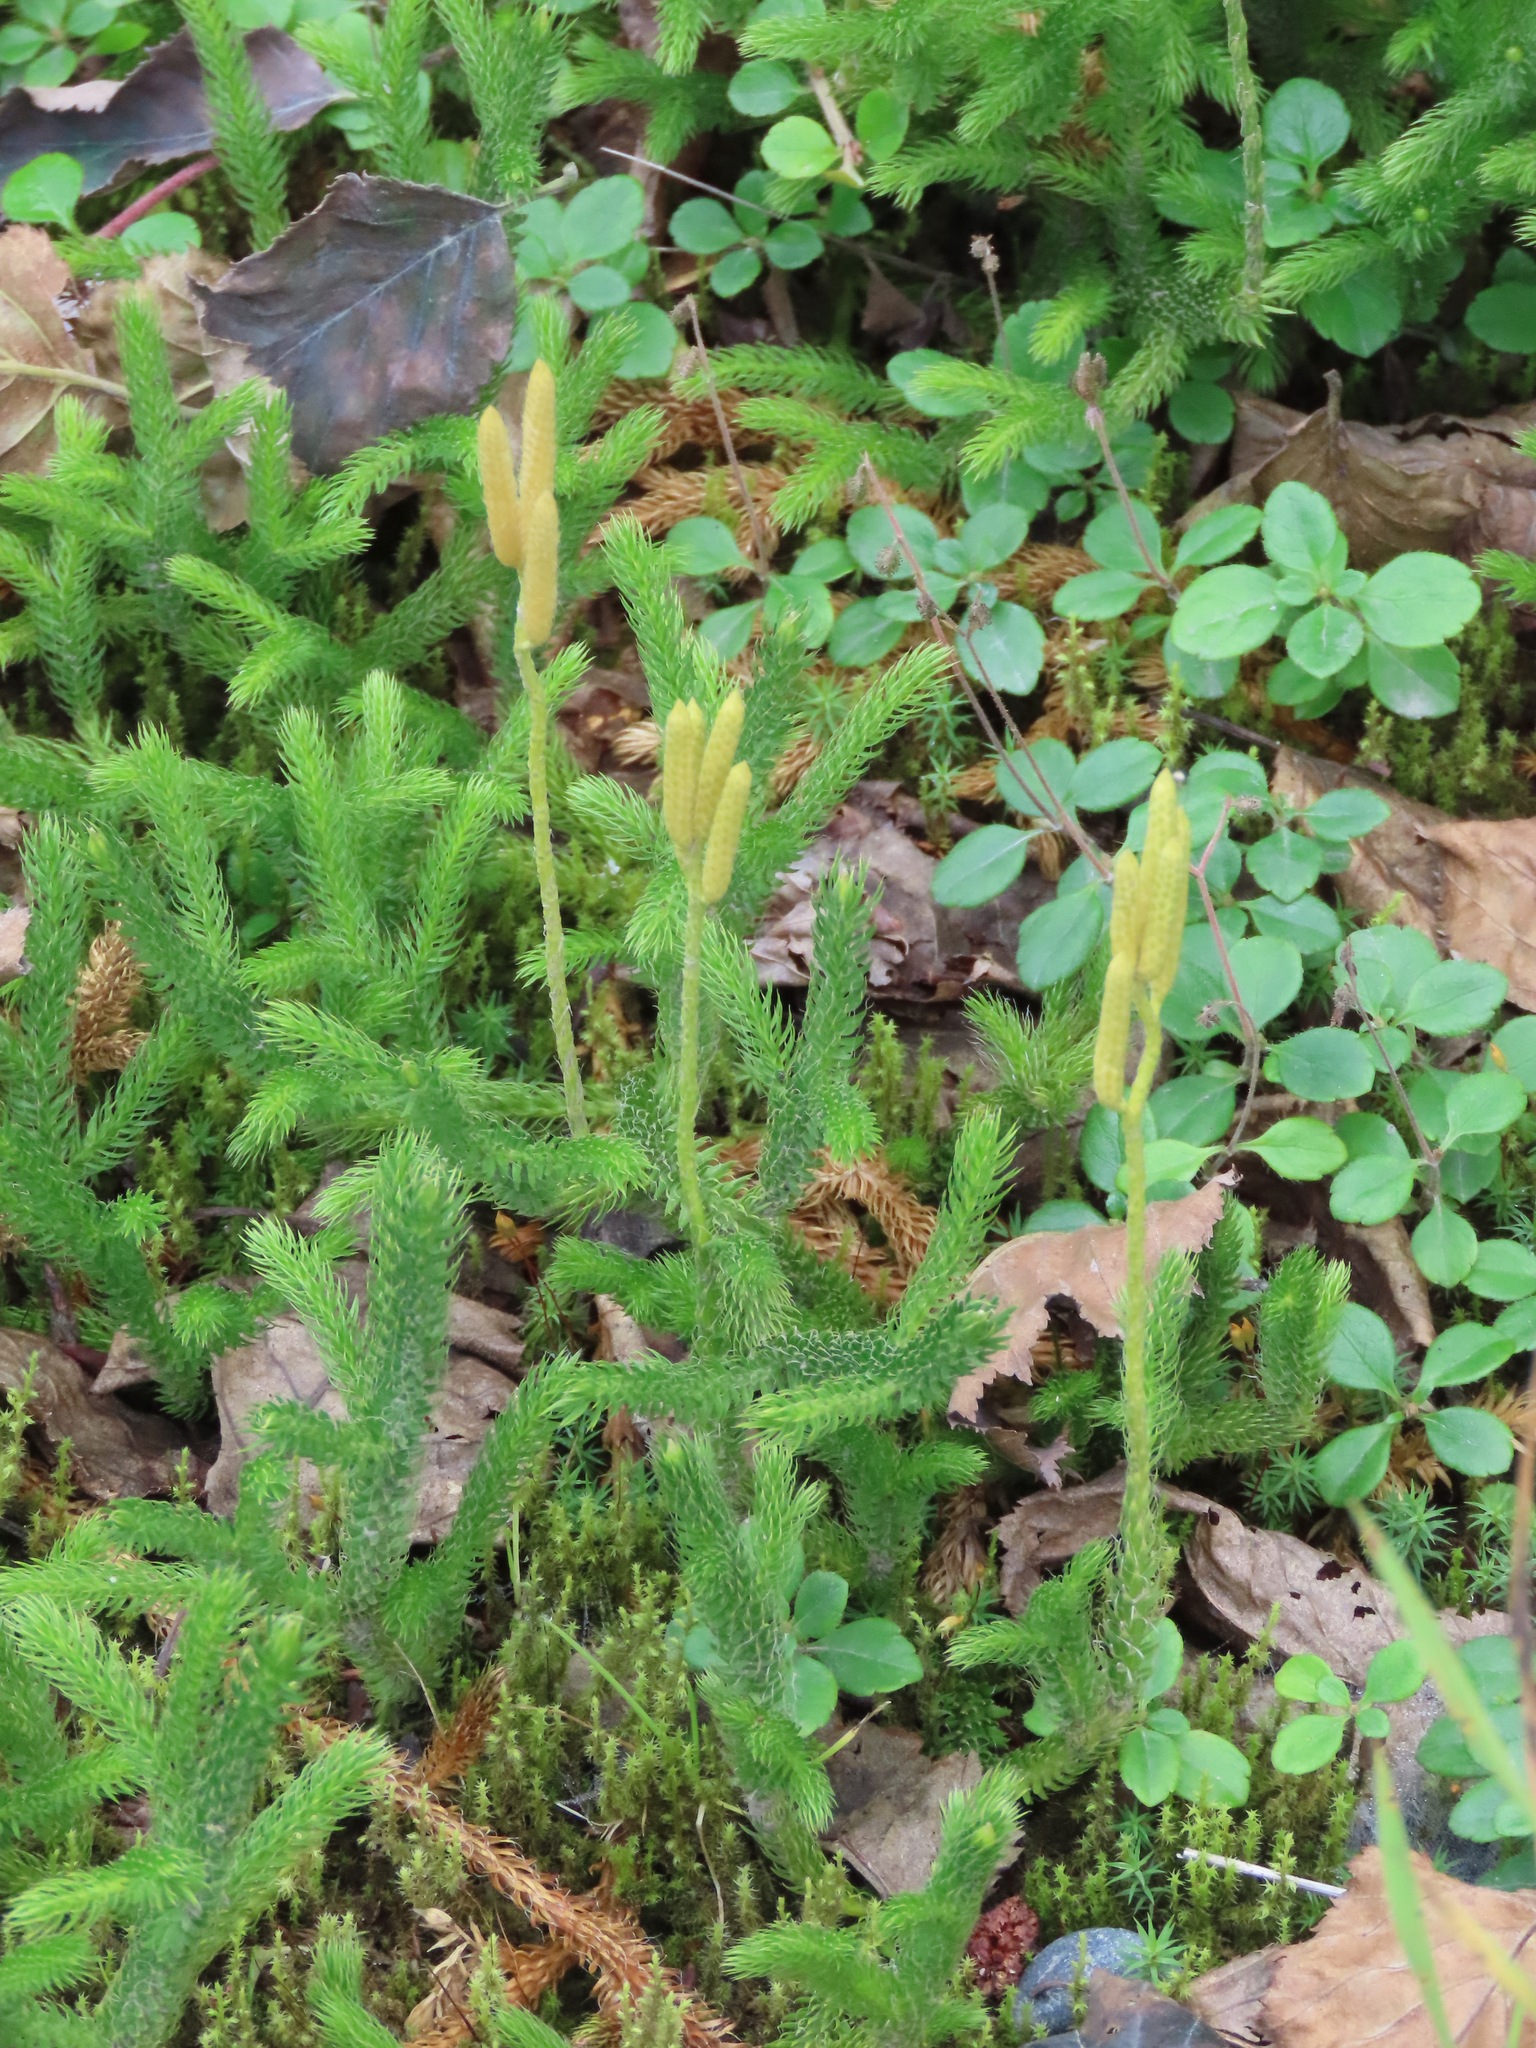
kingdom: Plantae
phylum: Tracheophyta
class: Lycopodiopsida
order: Lycopodiales
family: Lycopodiaceae
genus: Lycopodium
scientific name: Lycopodium clavatum
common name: Stag's-horn clubmoss
